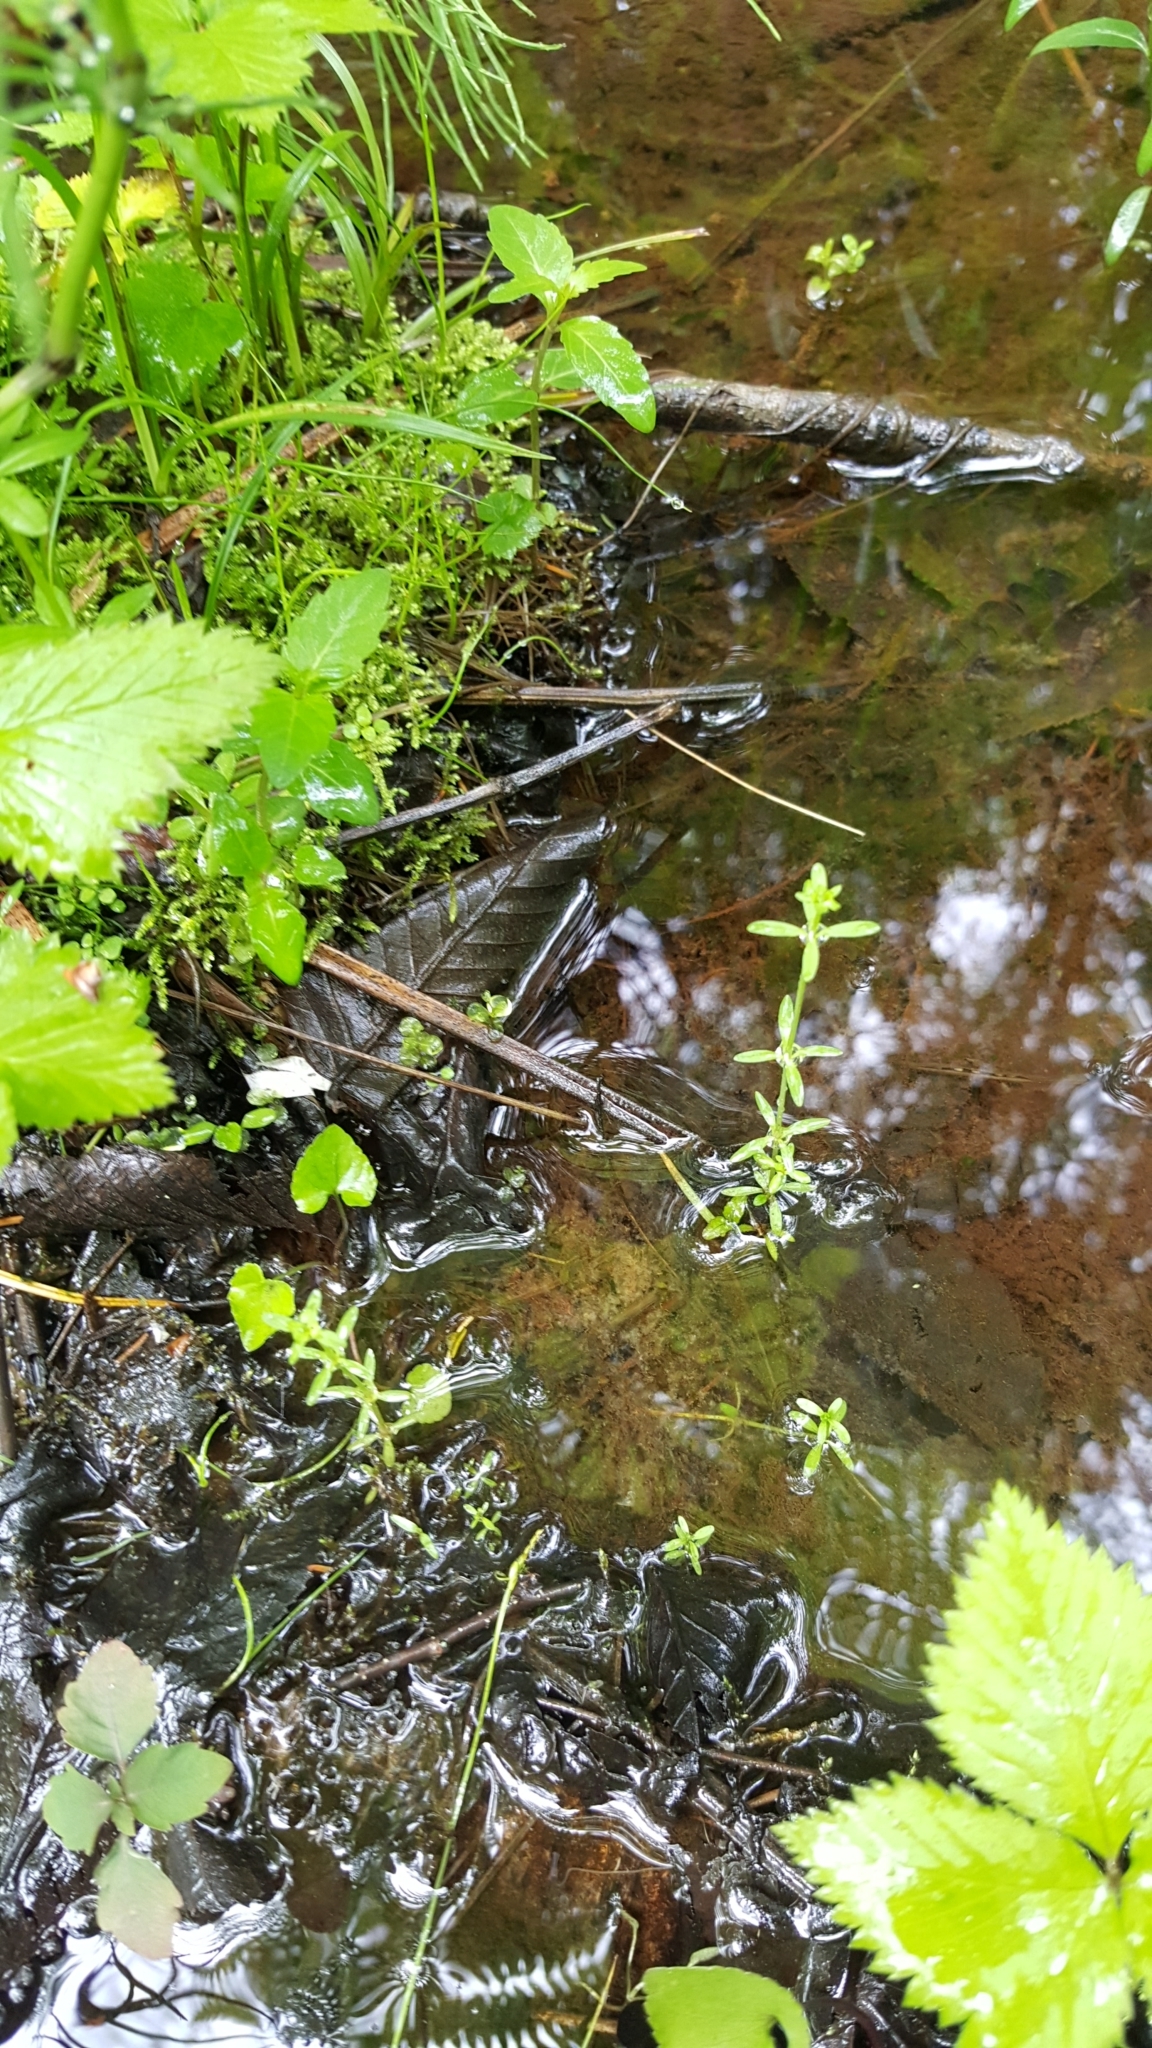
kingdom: Plantae
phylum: Tracheophyta
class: Magnoliopsida
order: Gentianales
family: Rubiaceae
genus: Galium
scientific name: Galium palustre
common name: Common marsh-bedstraw
